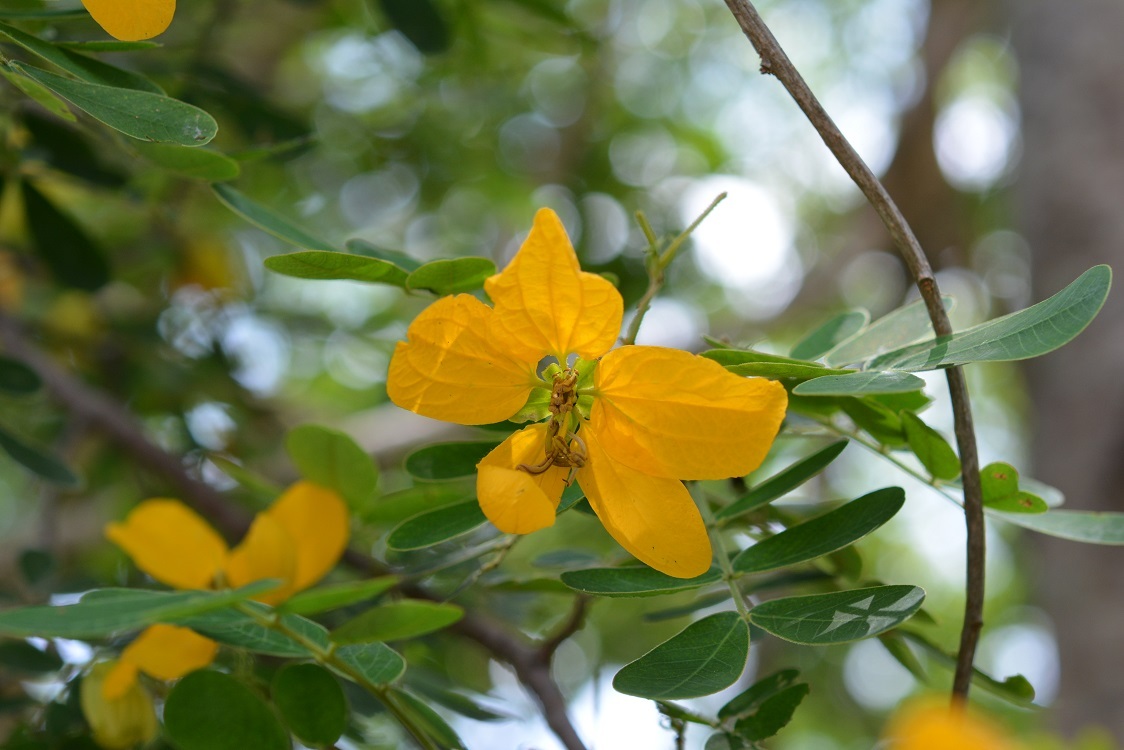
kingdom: Plantae
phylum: Tracheophyta
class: Magnoliopsida
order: Fabales
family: Fabaceae
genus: Senna
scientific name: Senna skinneri
